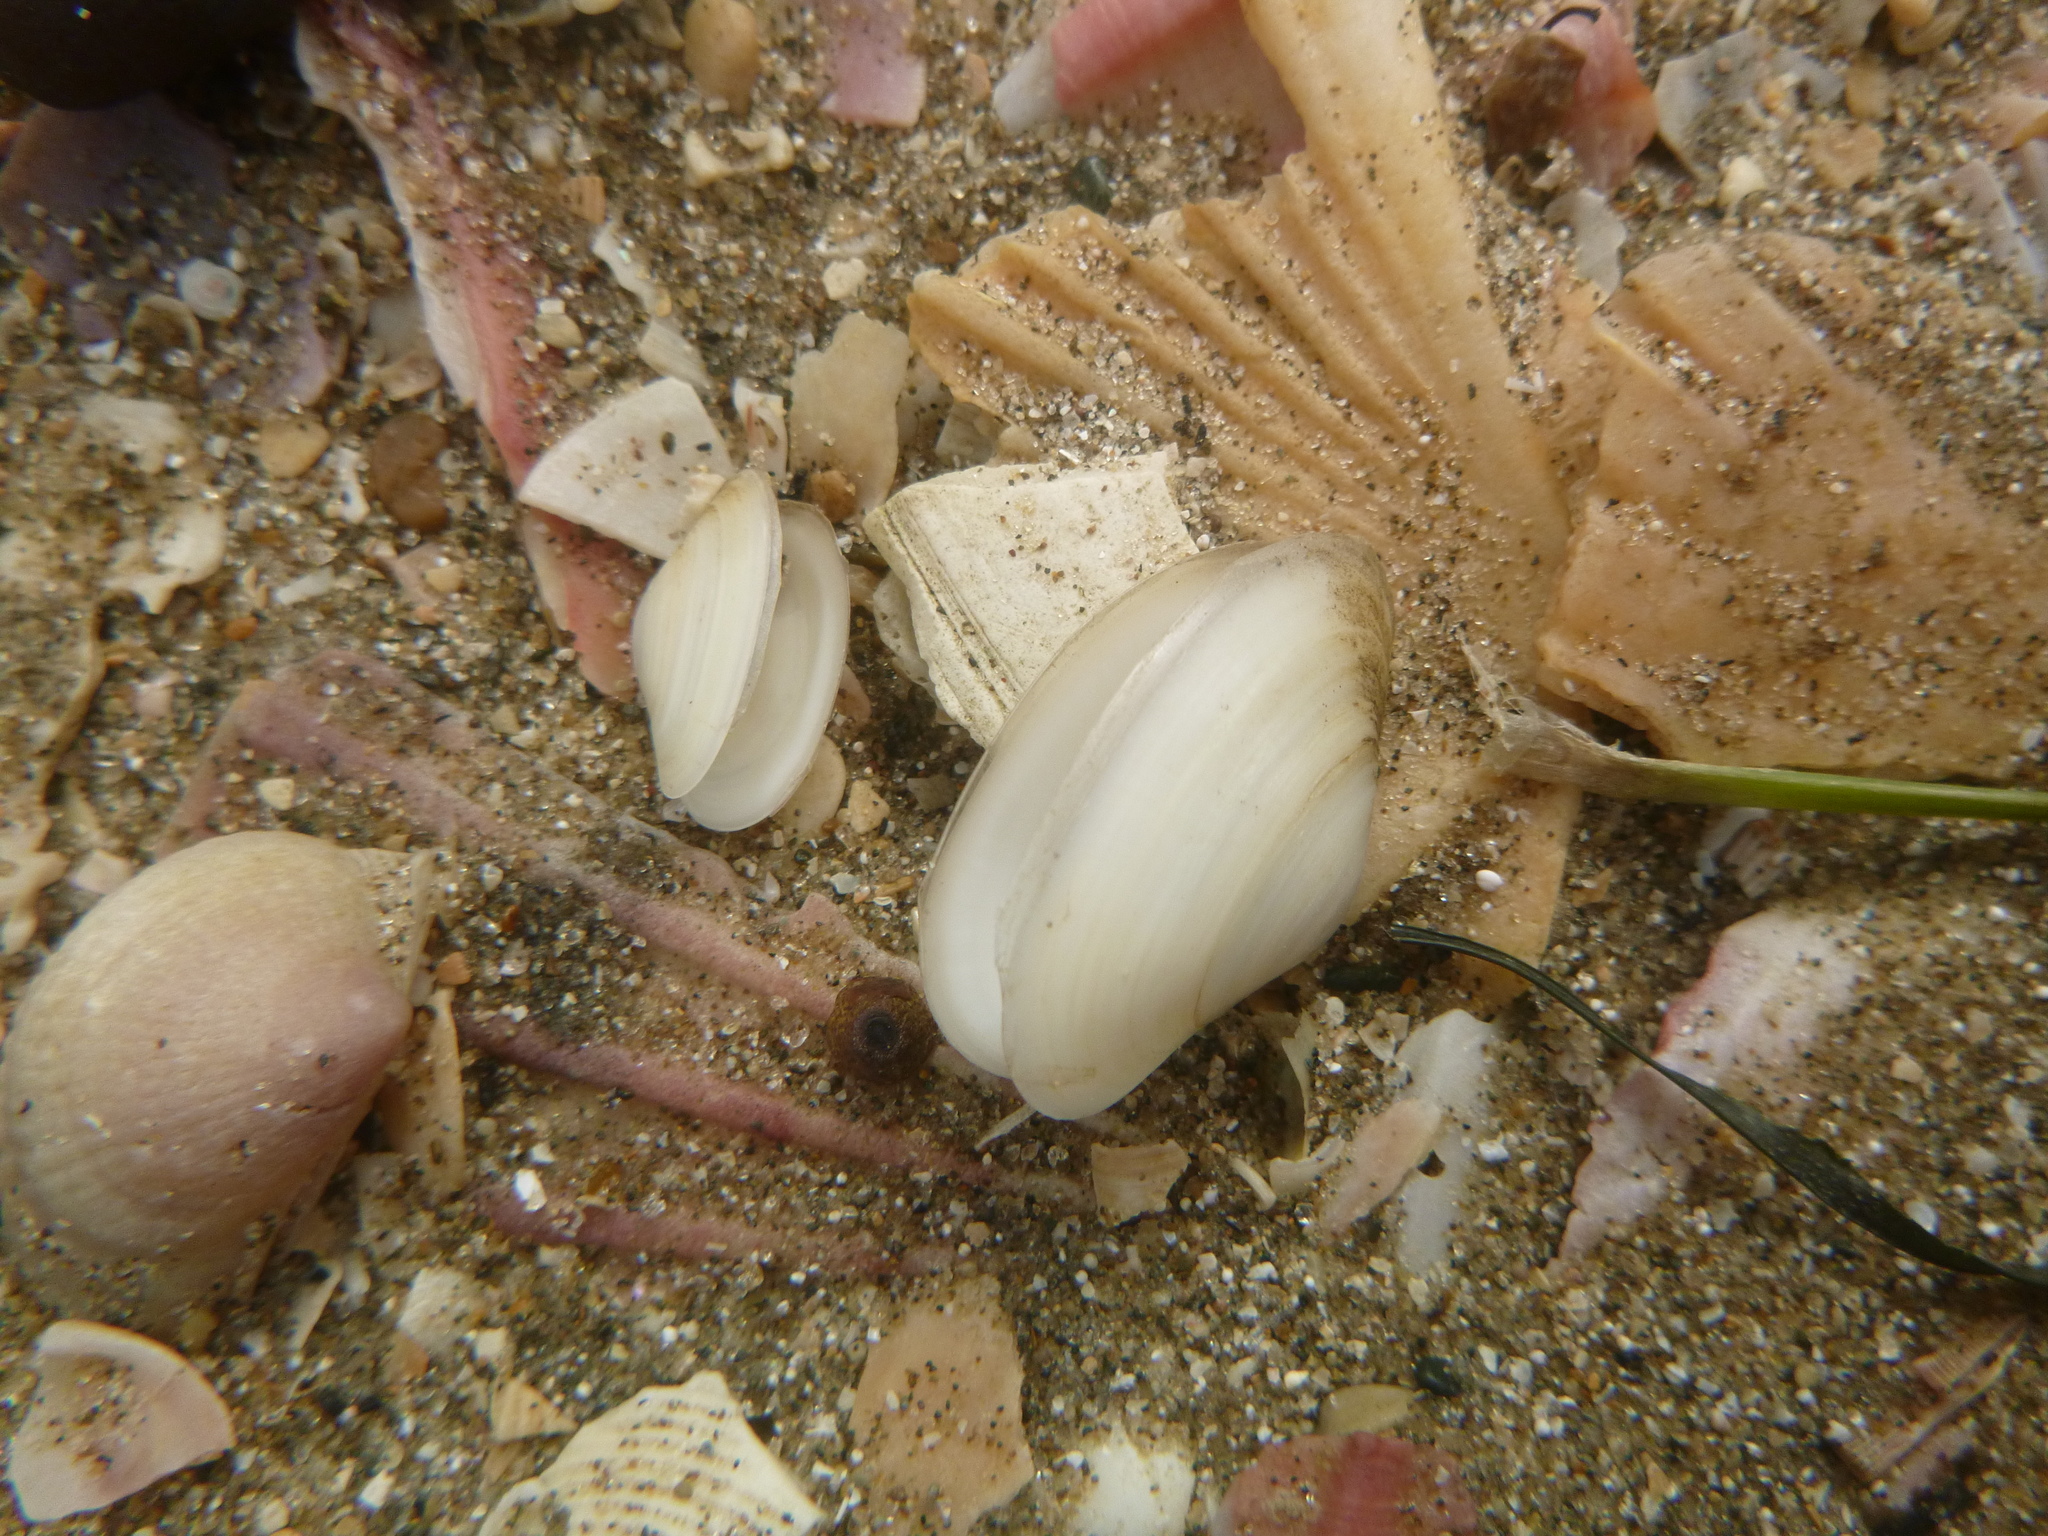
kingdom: Animalia
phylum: Mollusca
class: Bivalvia
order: Venerida
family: Mesodesmatidae
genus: Paphies
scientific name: Paphies australis
